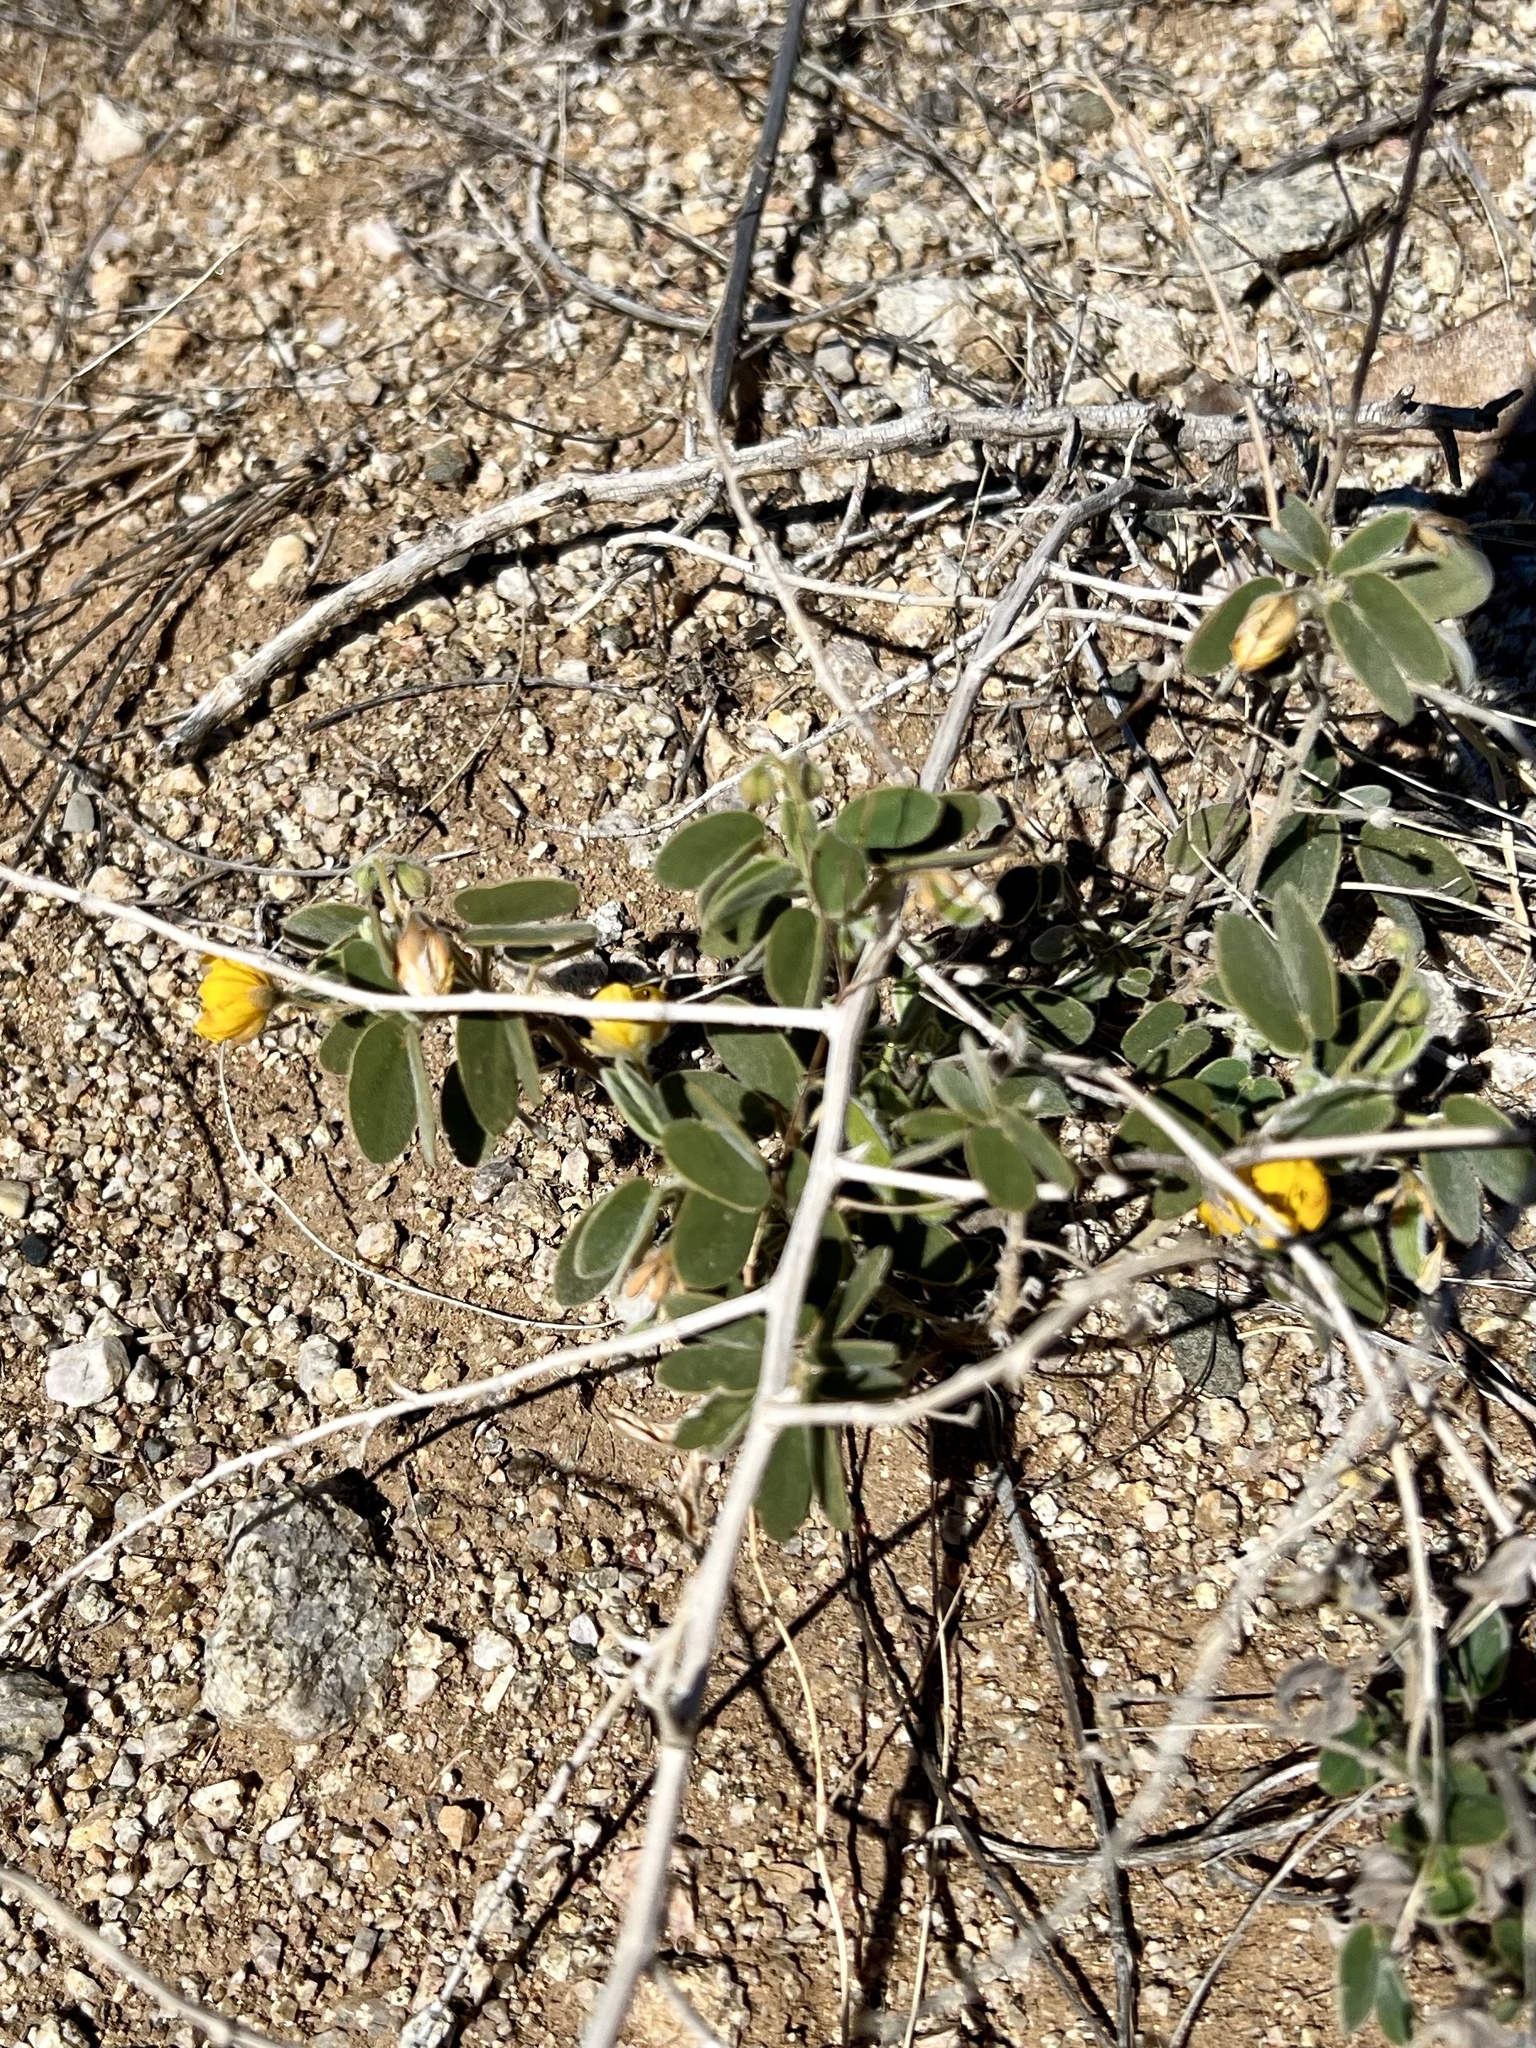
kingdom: Plantae
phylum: Tracheophyta
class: Magnoliopsida
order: Fabales
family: Fabaceae
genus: Senna
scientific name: Senna bauhinioides
